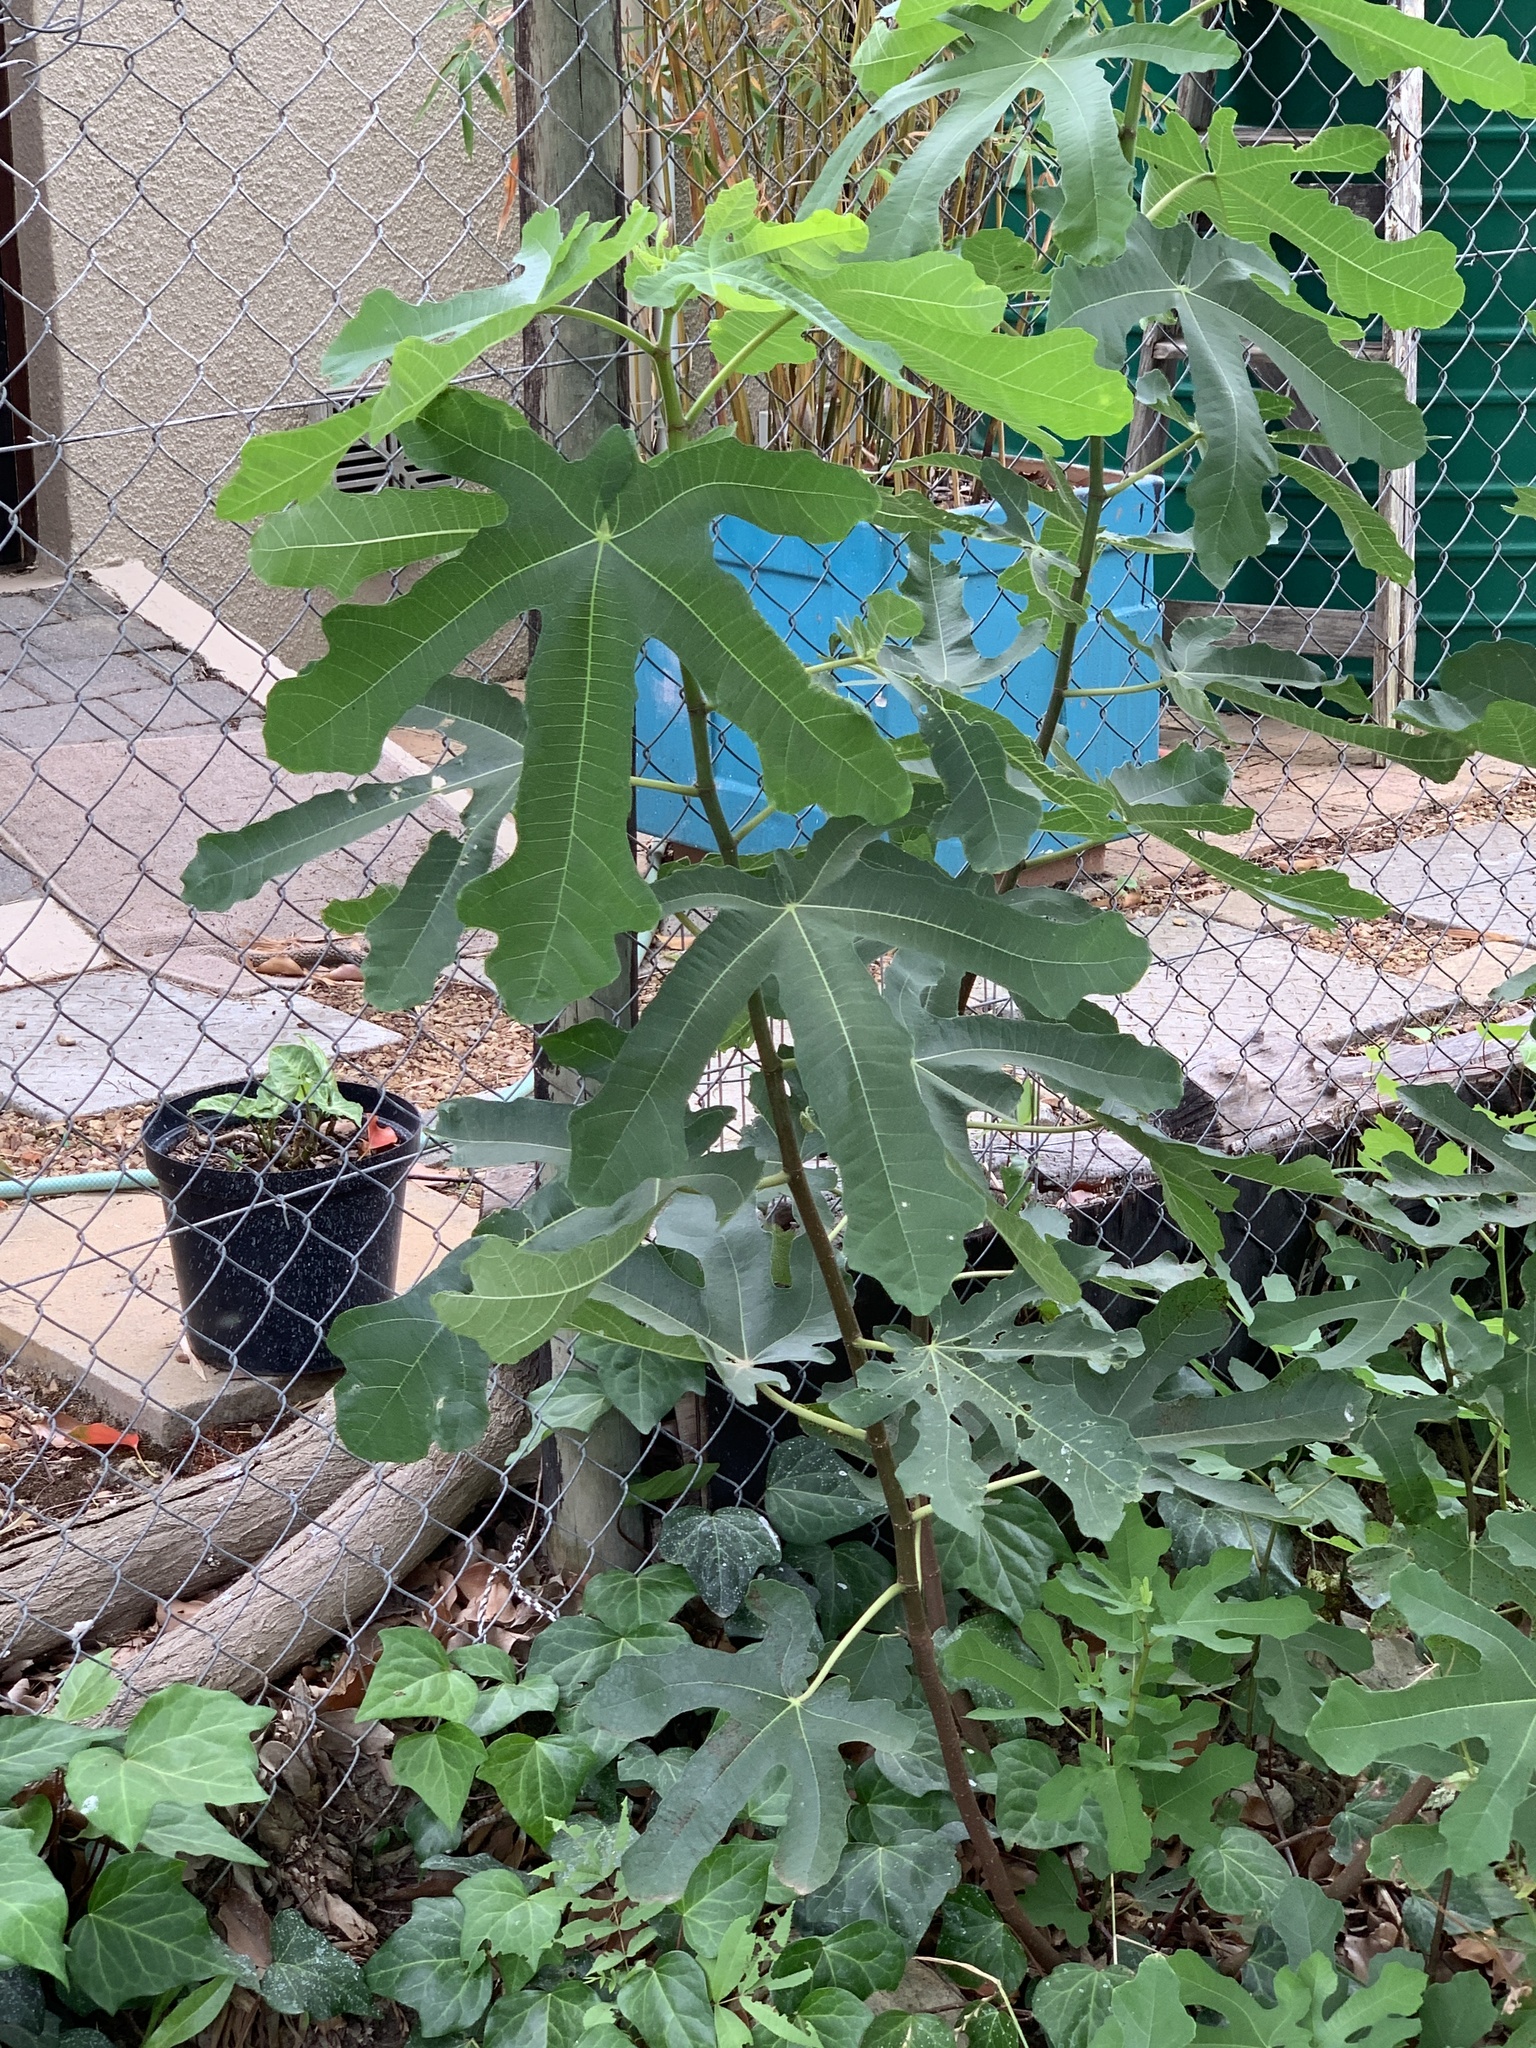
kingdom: Plantae
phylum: Tracheophyta
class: Magnoliopsida
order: Rosales
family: Moraceae
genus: Ficus
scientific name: Ficus carica
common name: Fig
